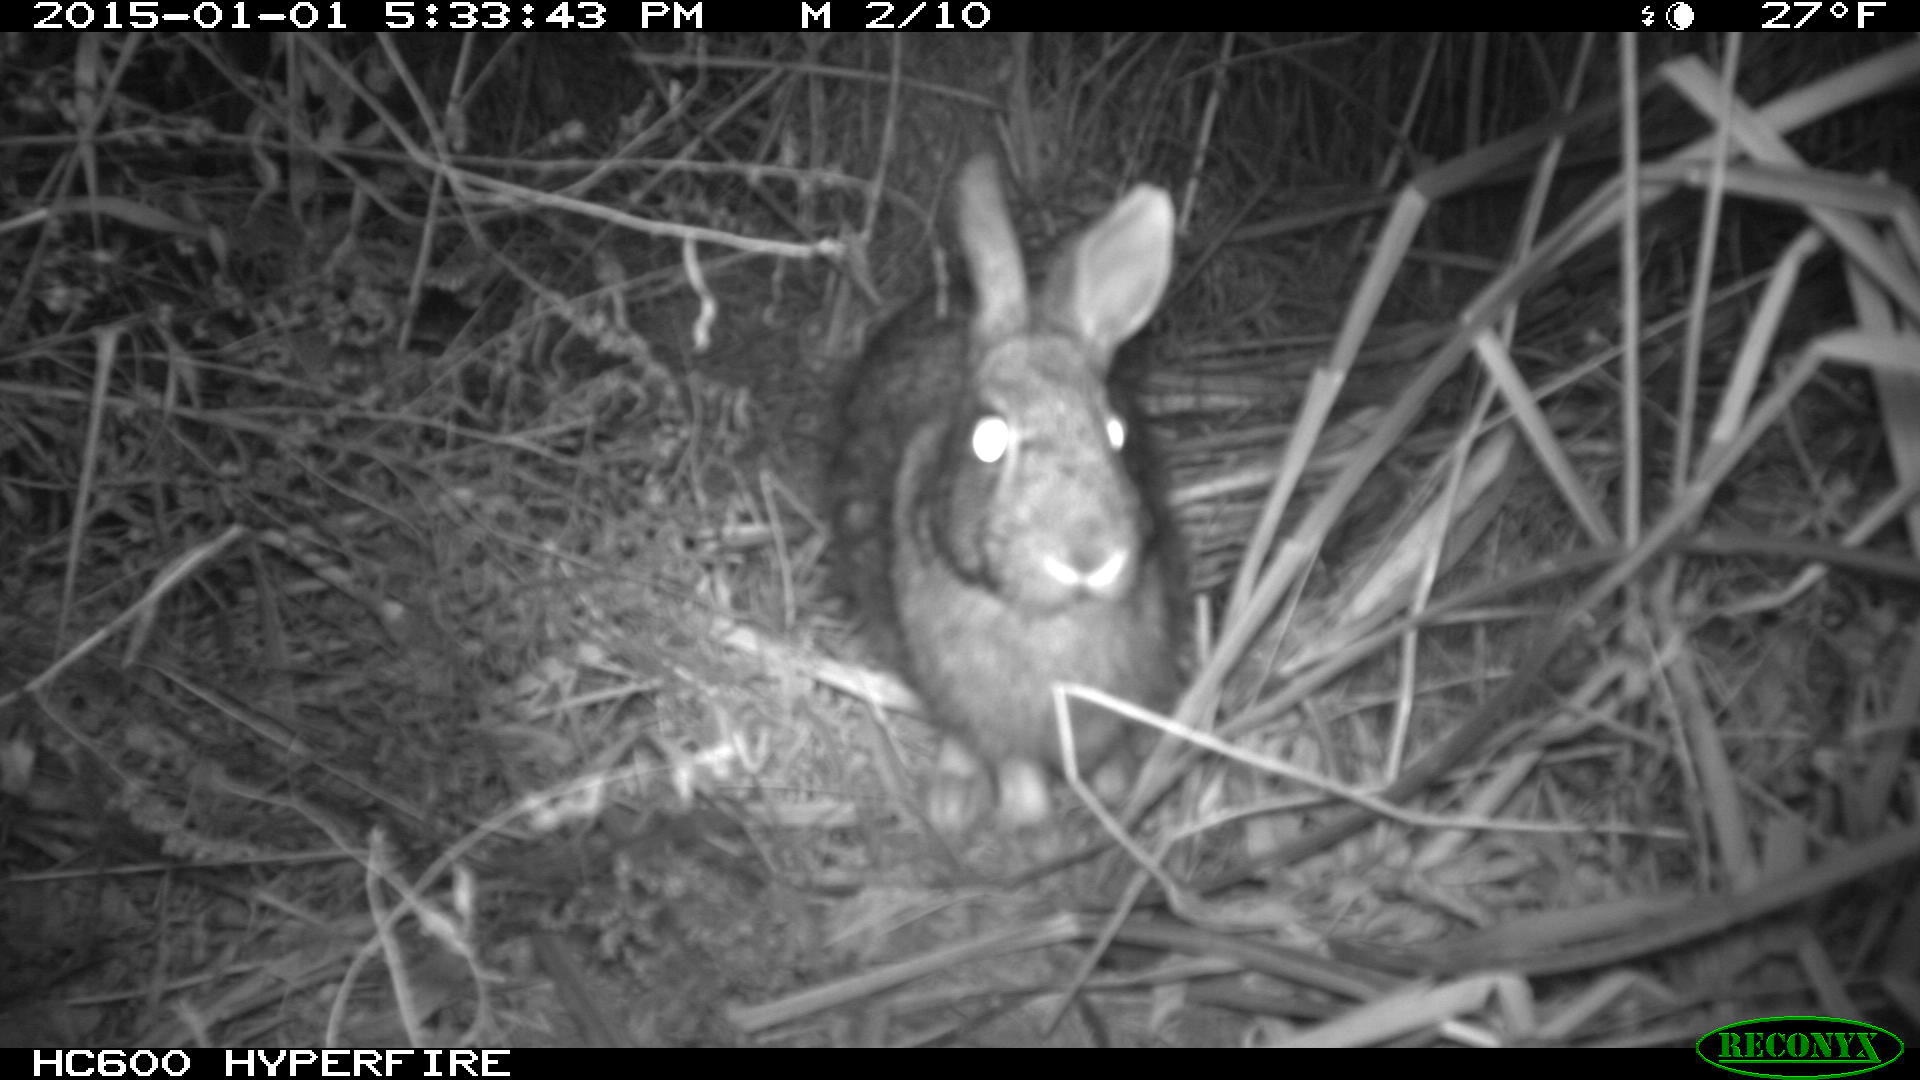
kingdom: Animalia
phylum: Chordata
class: Mammalia
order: Lagomorpha
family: Leporidae
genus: Sylvilagus
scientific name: Sylvilagus floridanus
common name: Eastern cottontail
